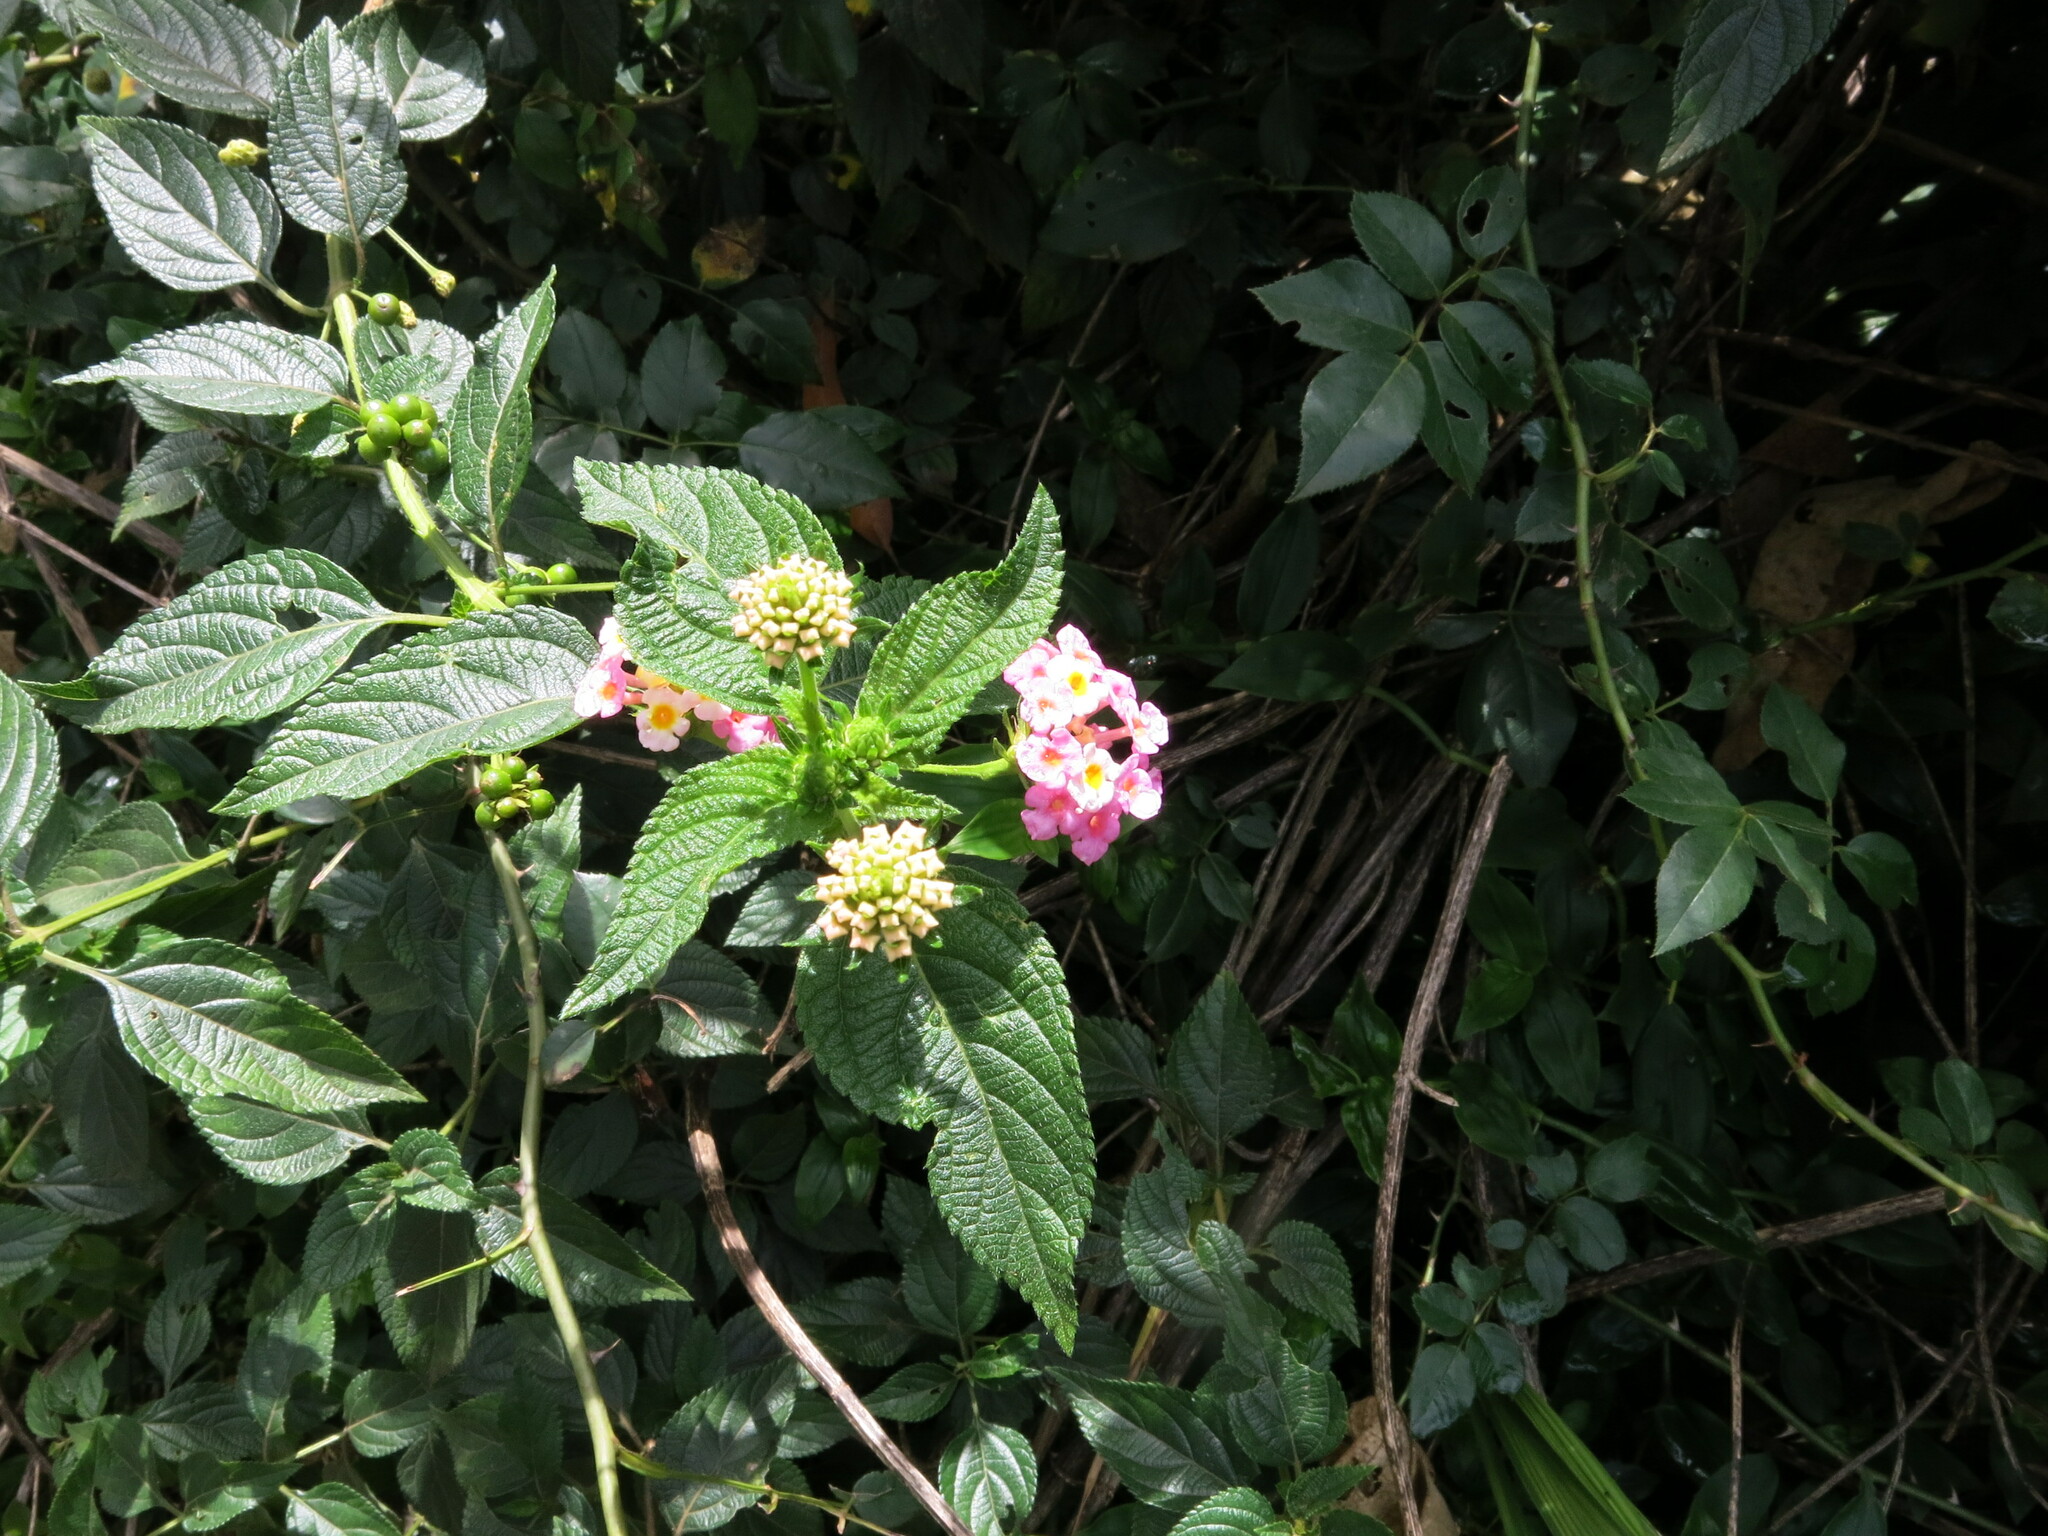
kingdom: Plantae
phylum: Tracheophyta
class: Magnoliopsida
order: Lamiales
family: Verbenaceae
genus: Lantana
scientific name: Lantana camara
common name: Lantana
